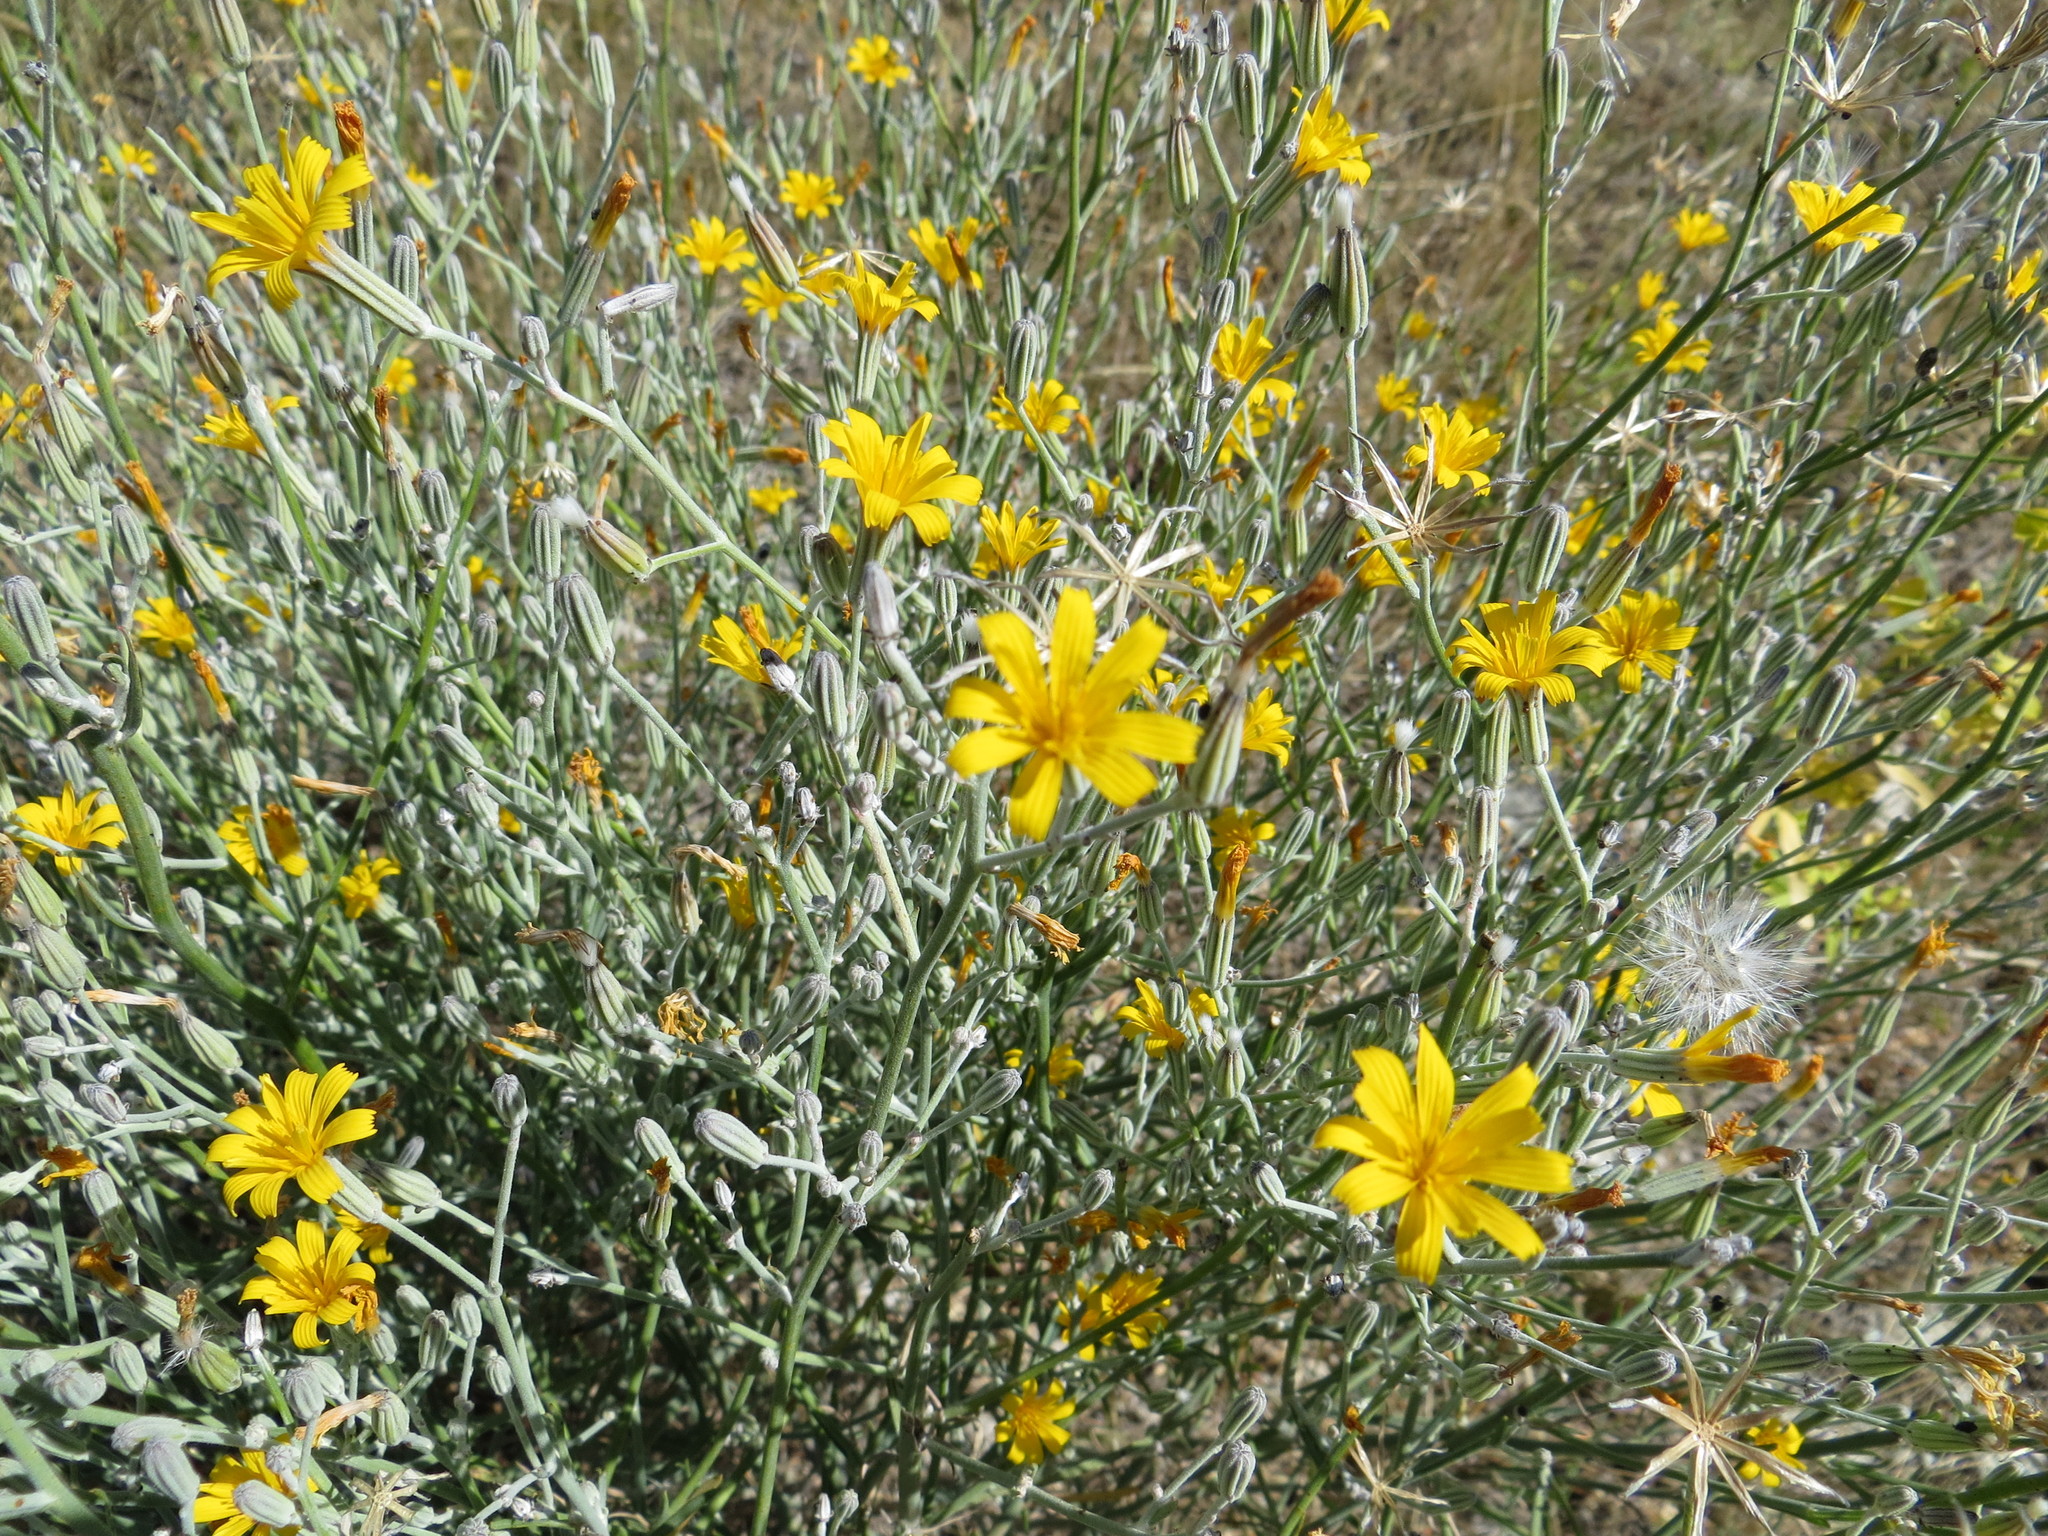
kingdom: Plantae
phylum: Tracheophyta
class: Magnoliopsida
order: Asterales
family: Asteraceae
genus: Chondrilla
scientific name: Chondrilla juncea
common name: Skeleton weed
